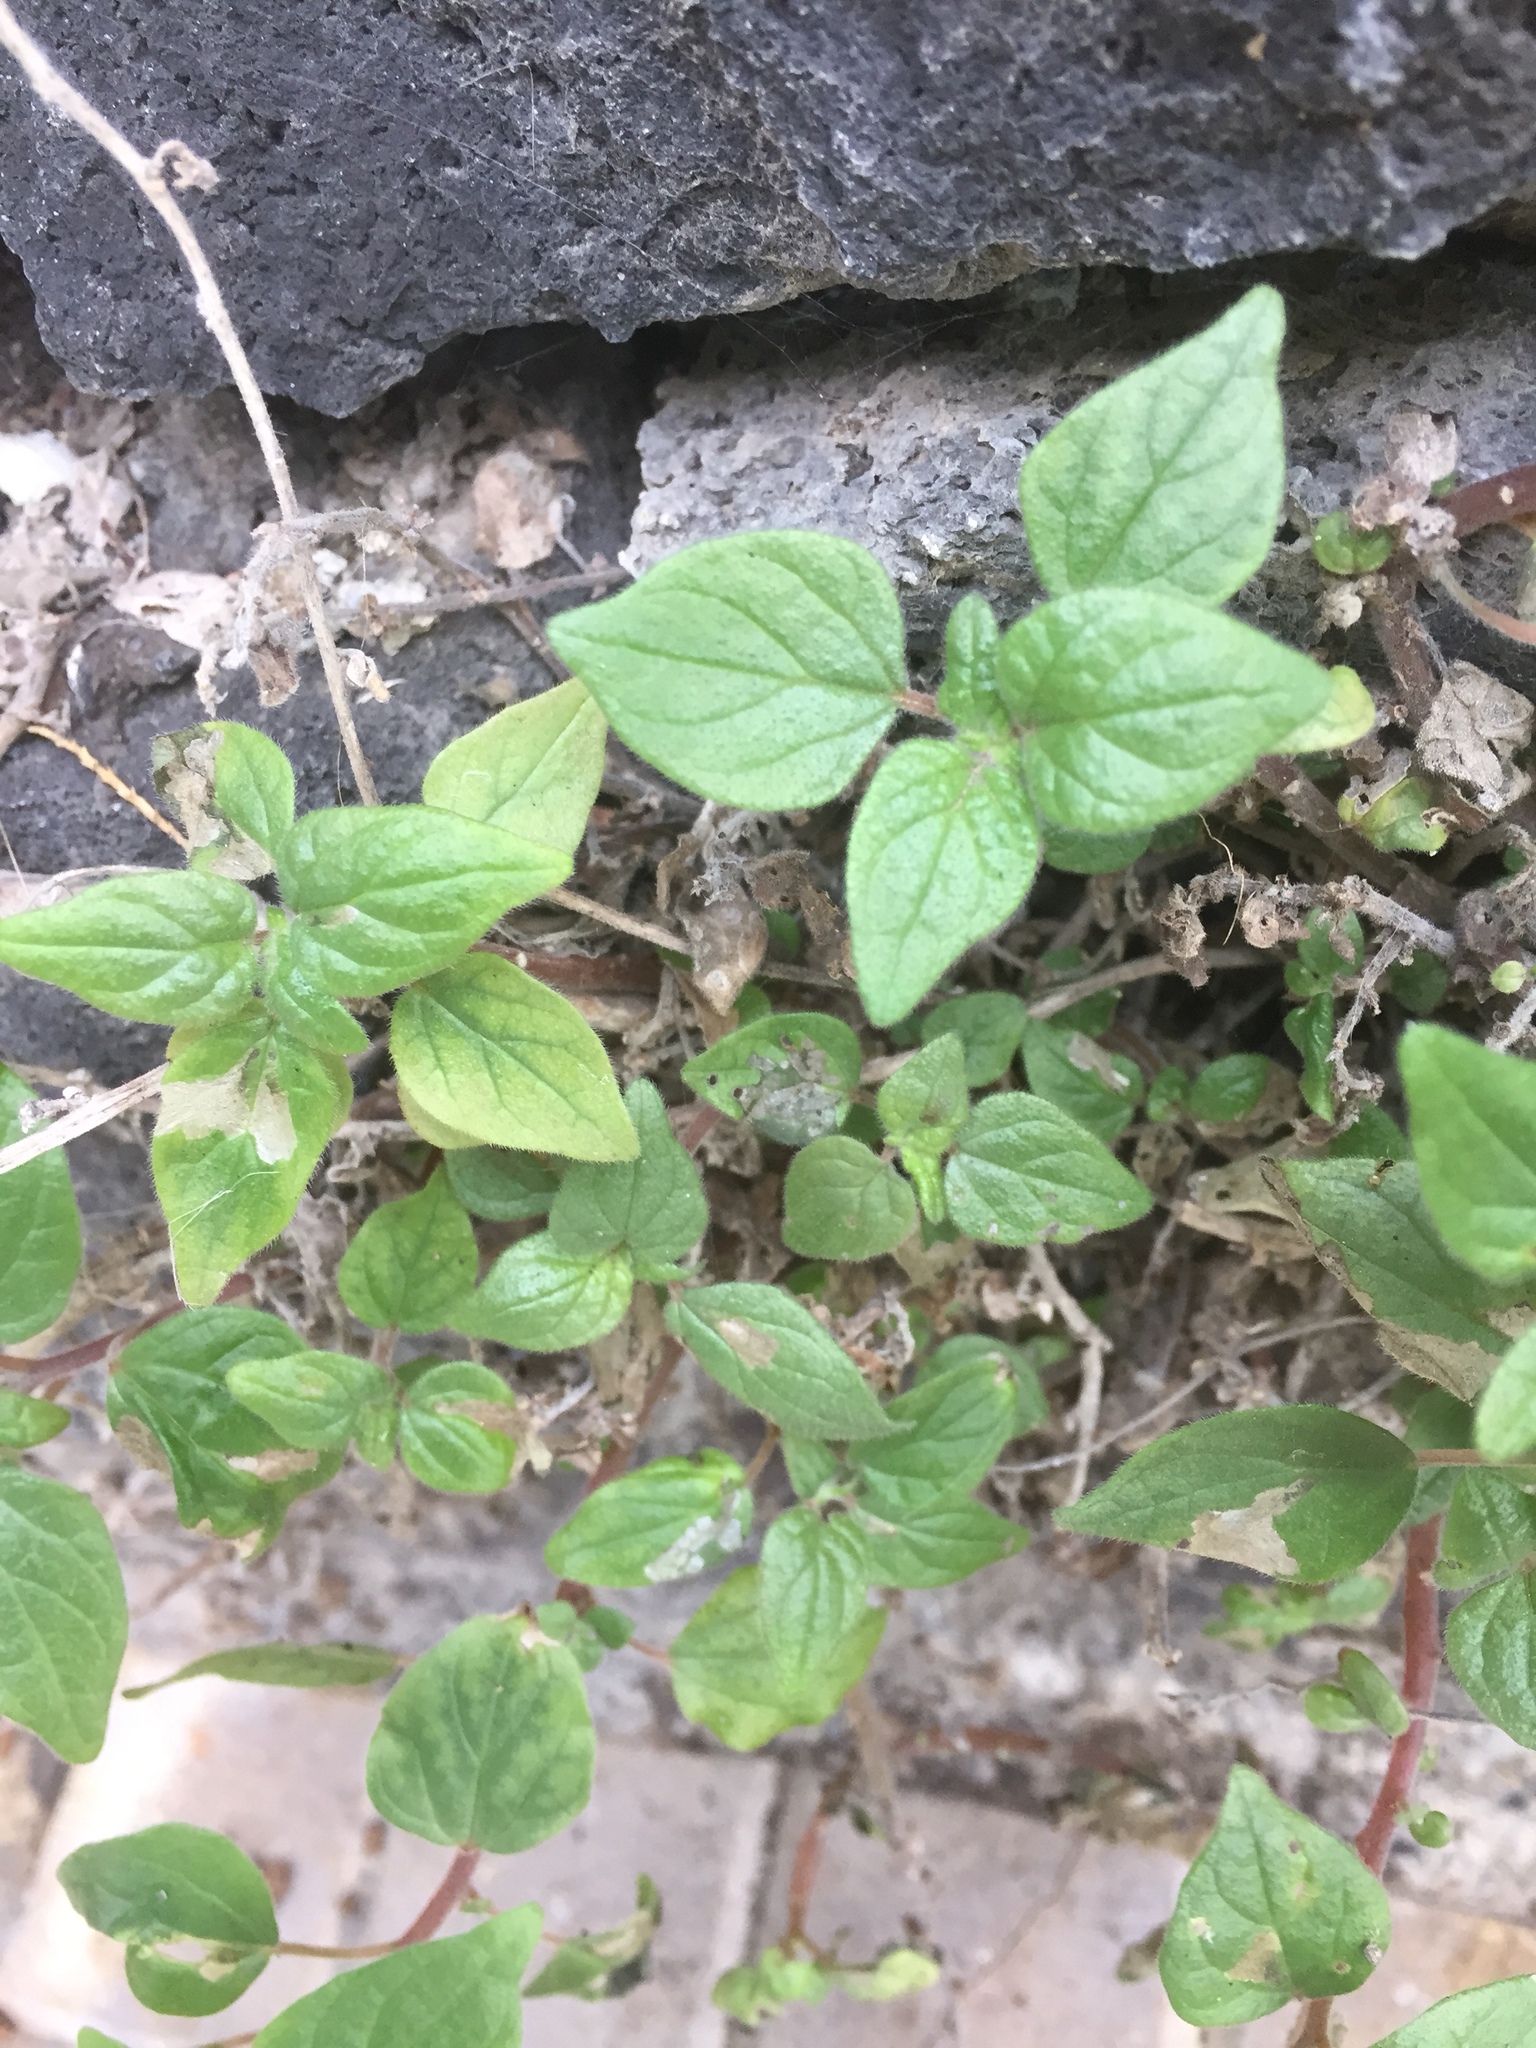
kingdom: Plantae
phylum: Tracheophyta
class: Magnoliopsida
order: Rosales
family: Urticaceae
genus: Parietaria
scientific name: Parietaria judaica
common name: Pellitory-of-the-wall
